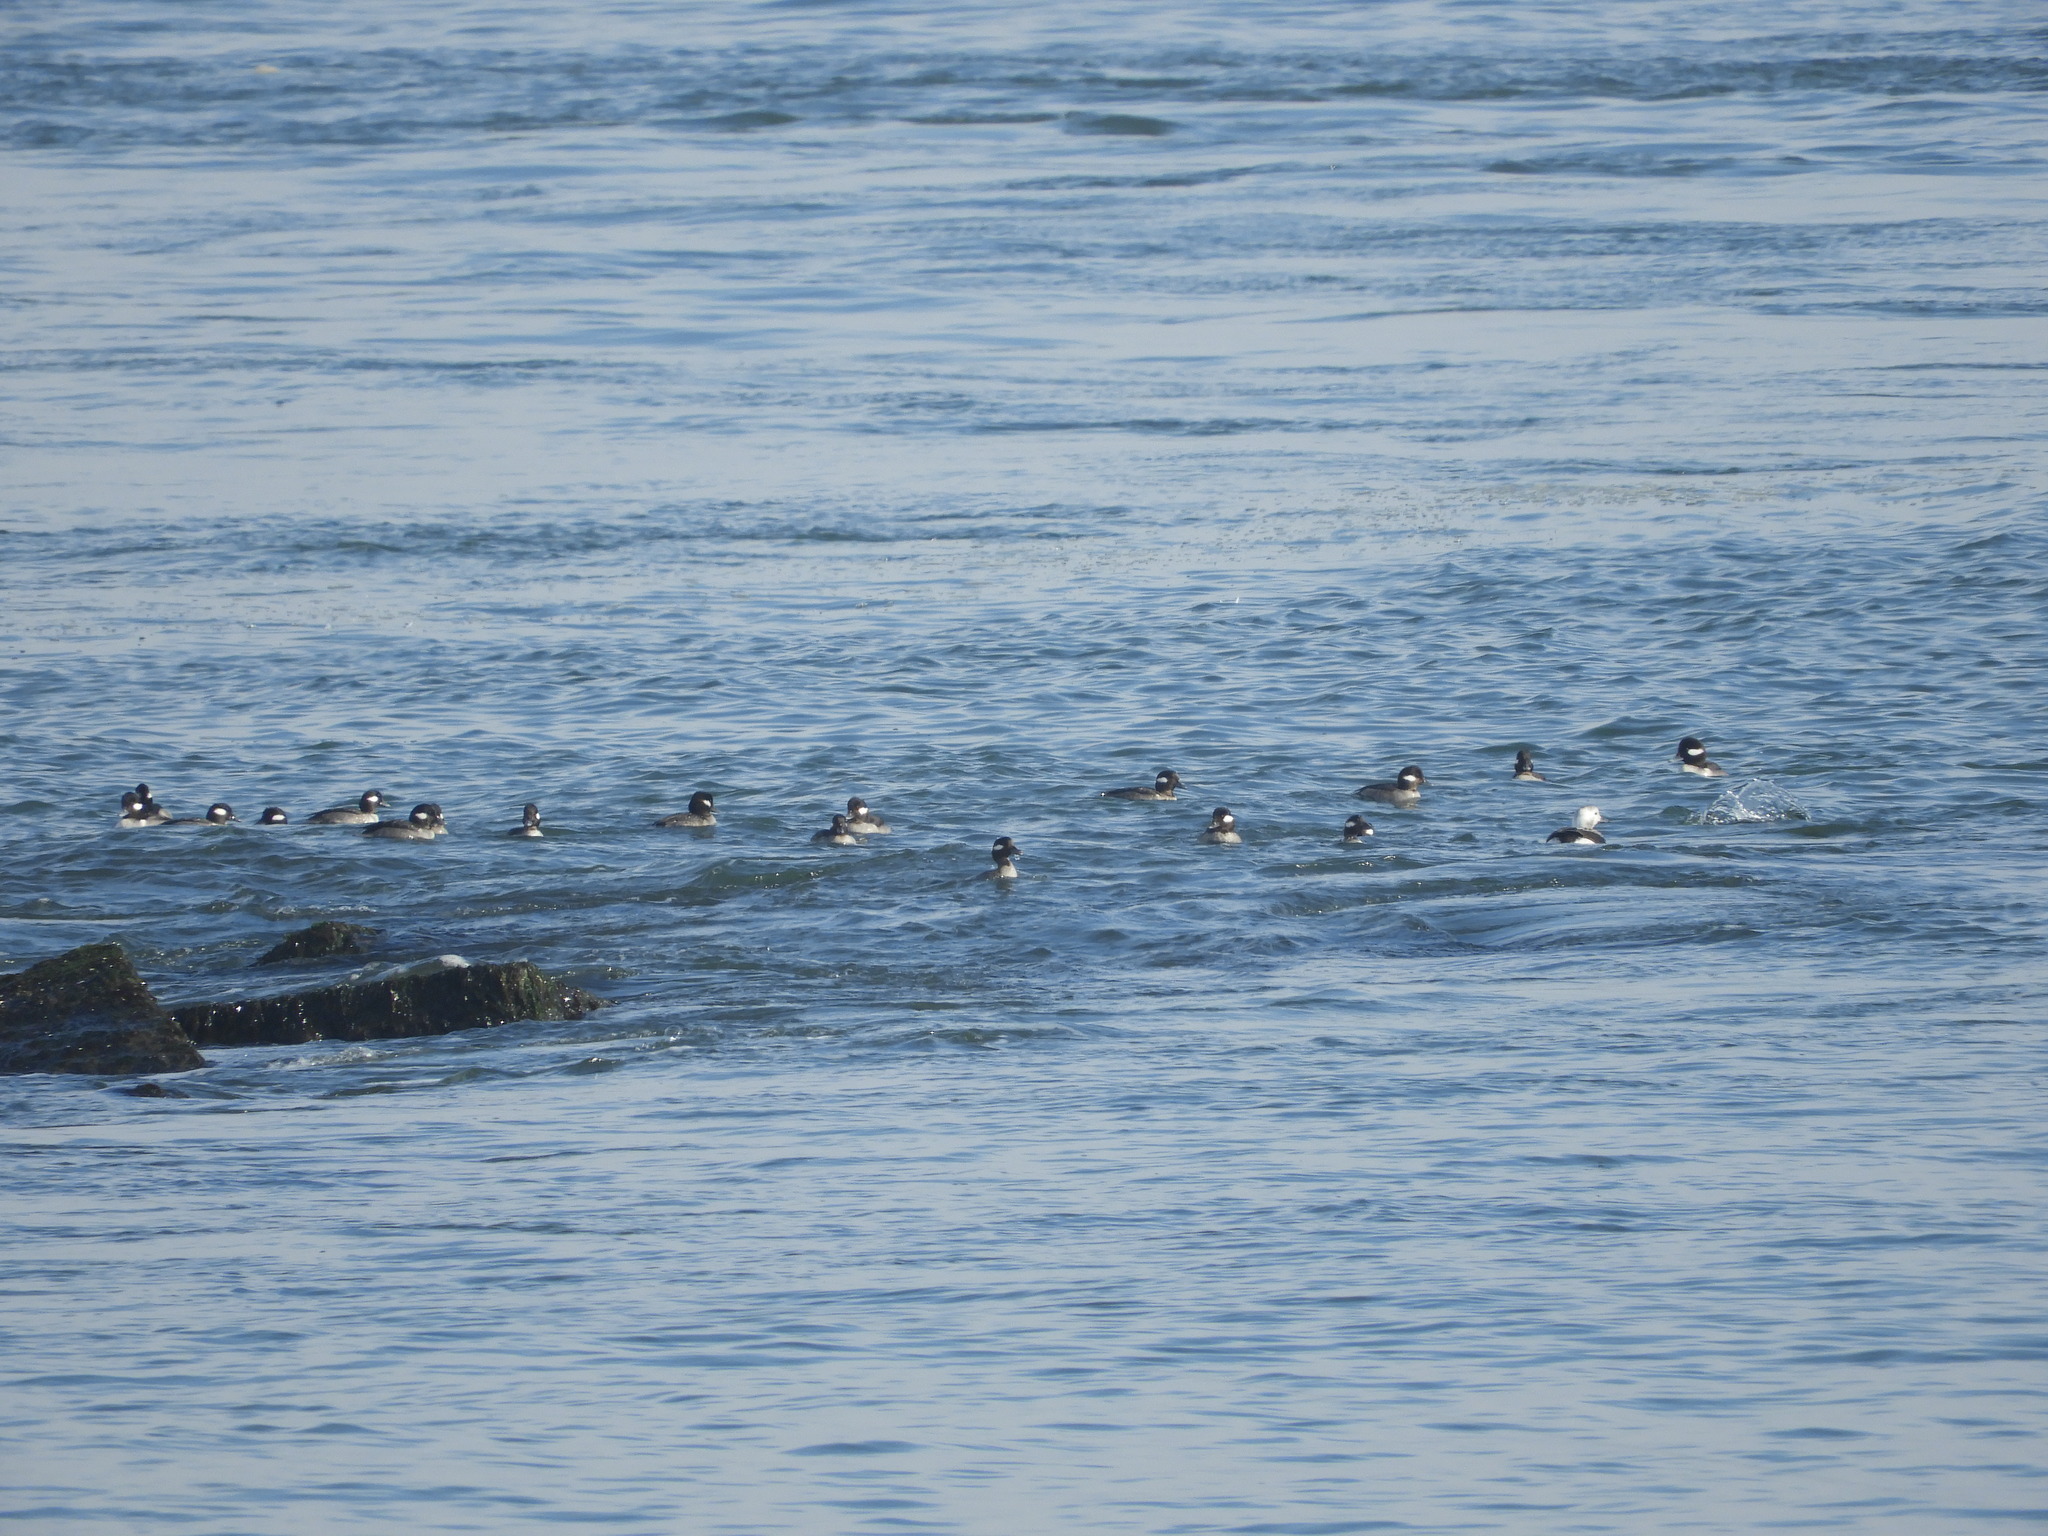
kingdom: Animalia
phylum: Chordata
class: Aves
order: Anseriformes
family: Anatidae
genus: Bucephala
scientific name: Bucephala albeola
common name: Bufflehead
